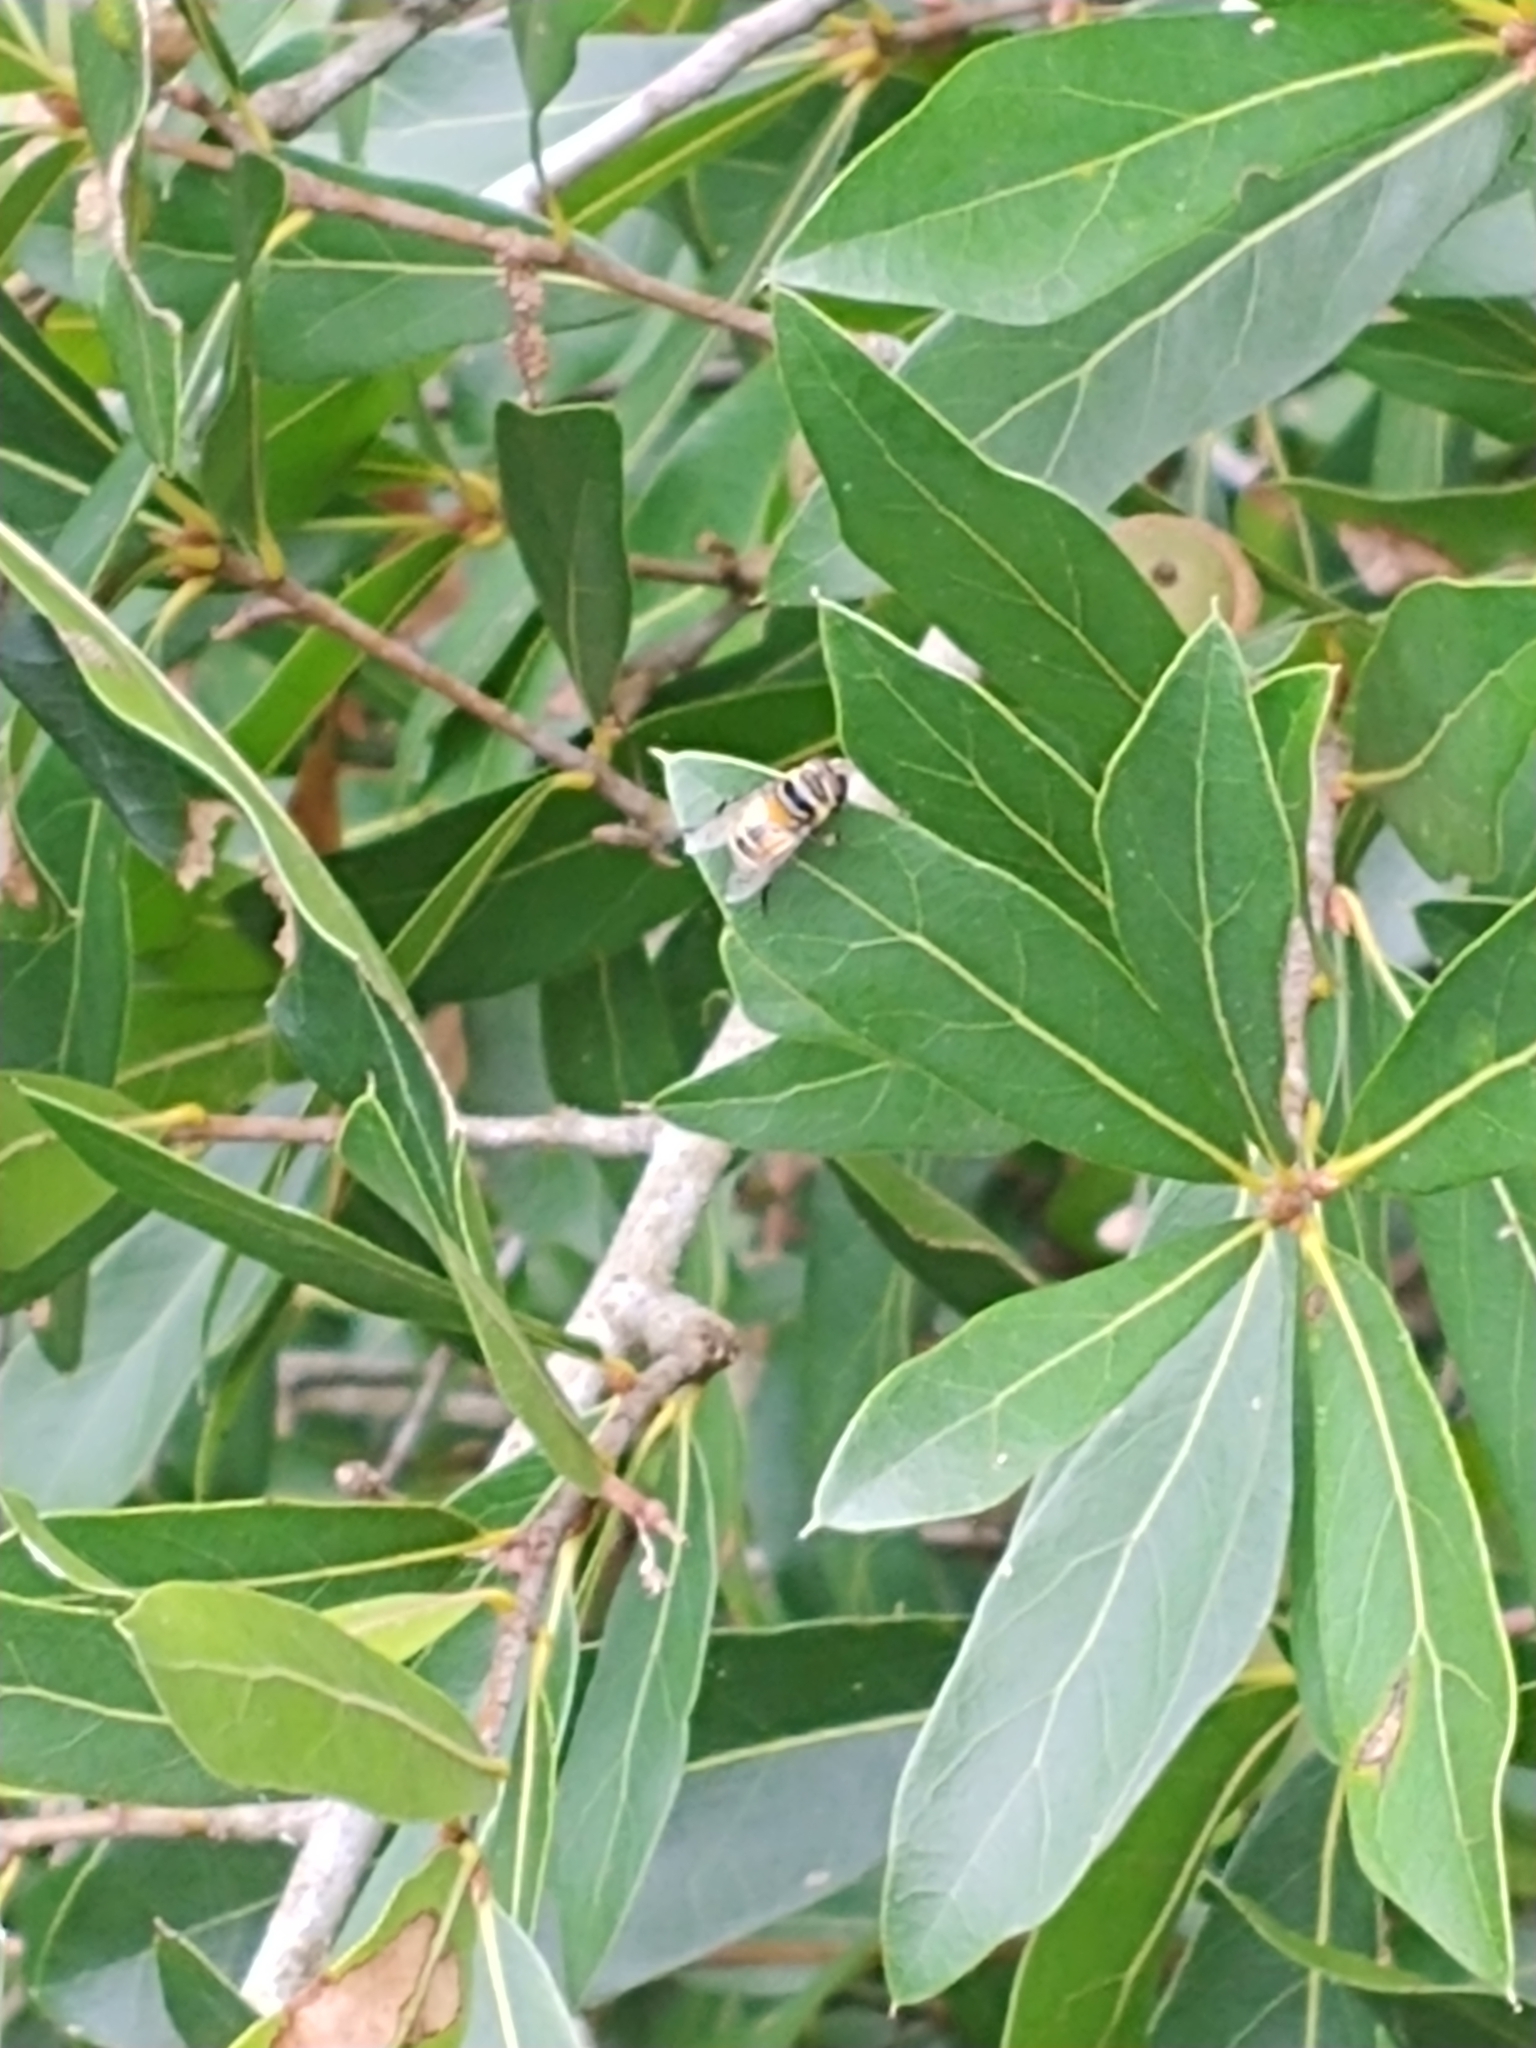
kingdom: Animalia
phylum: Arthropoda
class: Insecta
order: Diptera
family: Syrphidae
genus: Palpada
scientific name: Palpada agrorum
